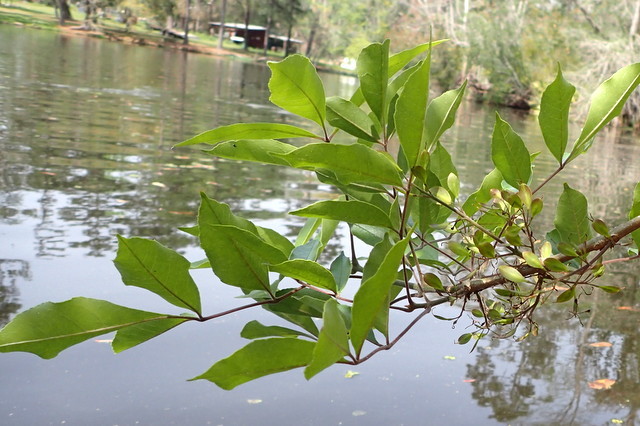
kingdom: Plantae
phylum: Tracheophyta
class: Magnoliopsida
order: Lamiales
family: Oleaceae
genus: Fraxinus
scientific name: Fraxinus caroliniana
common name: Carolina ash
